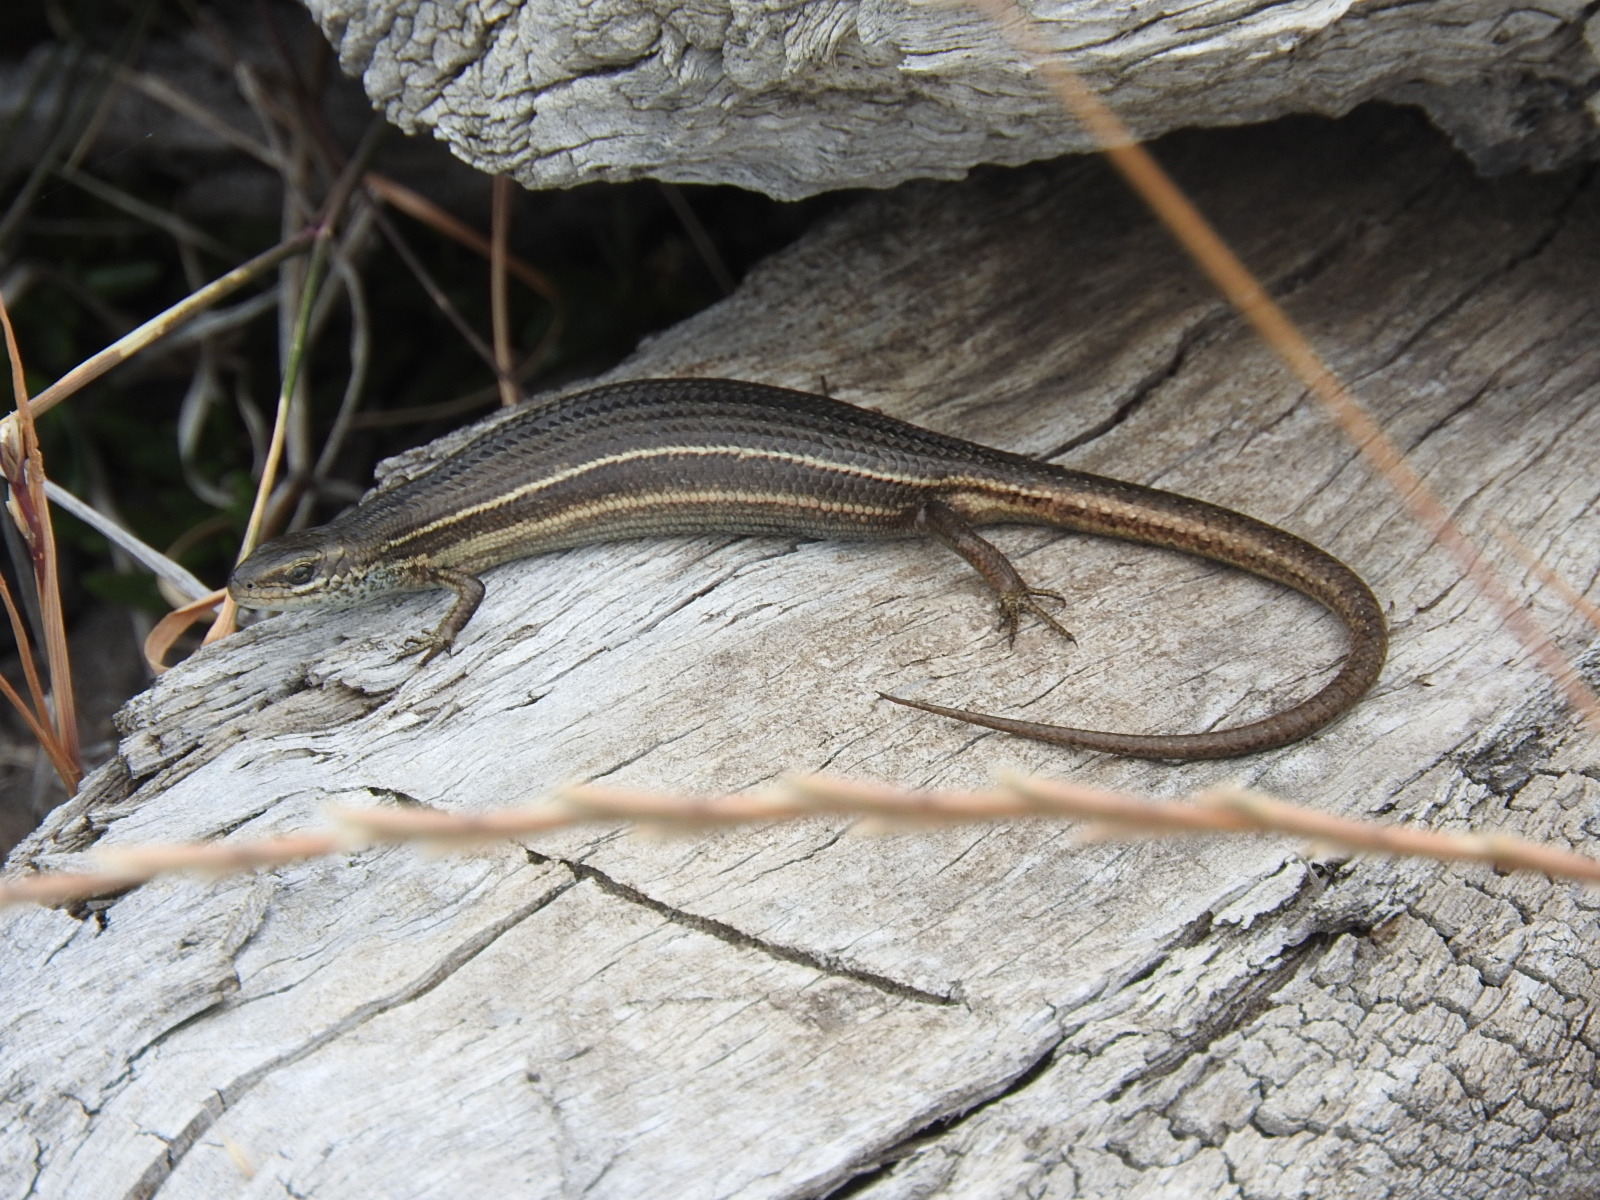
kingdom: Animalia
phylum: Chordata
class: Squamata
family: Scincidae
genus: Acritoscincus
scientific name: Acritoscincus duperreyi
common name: Bold-striped cool-skink
